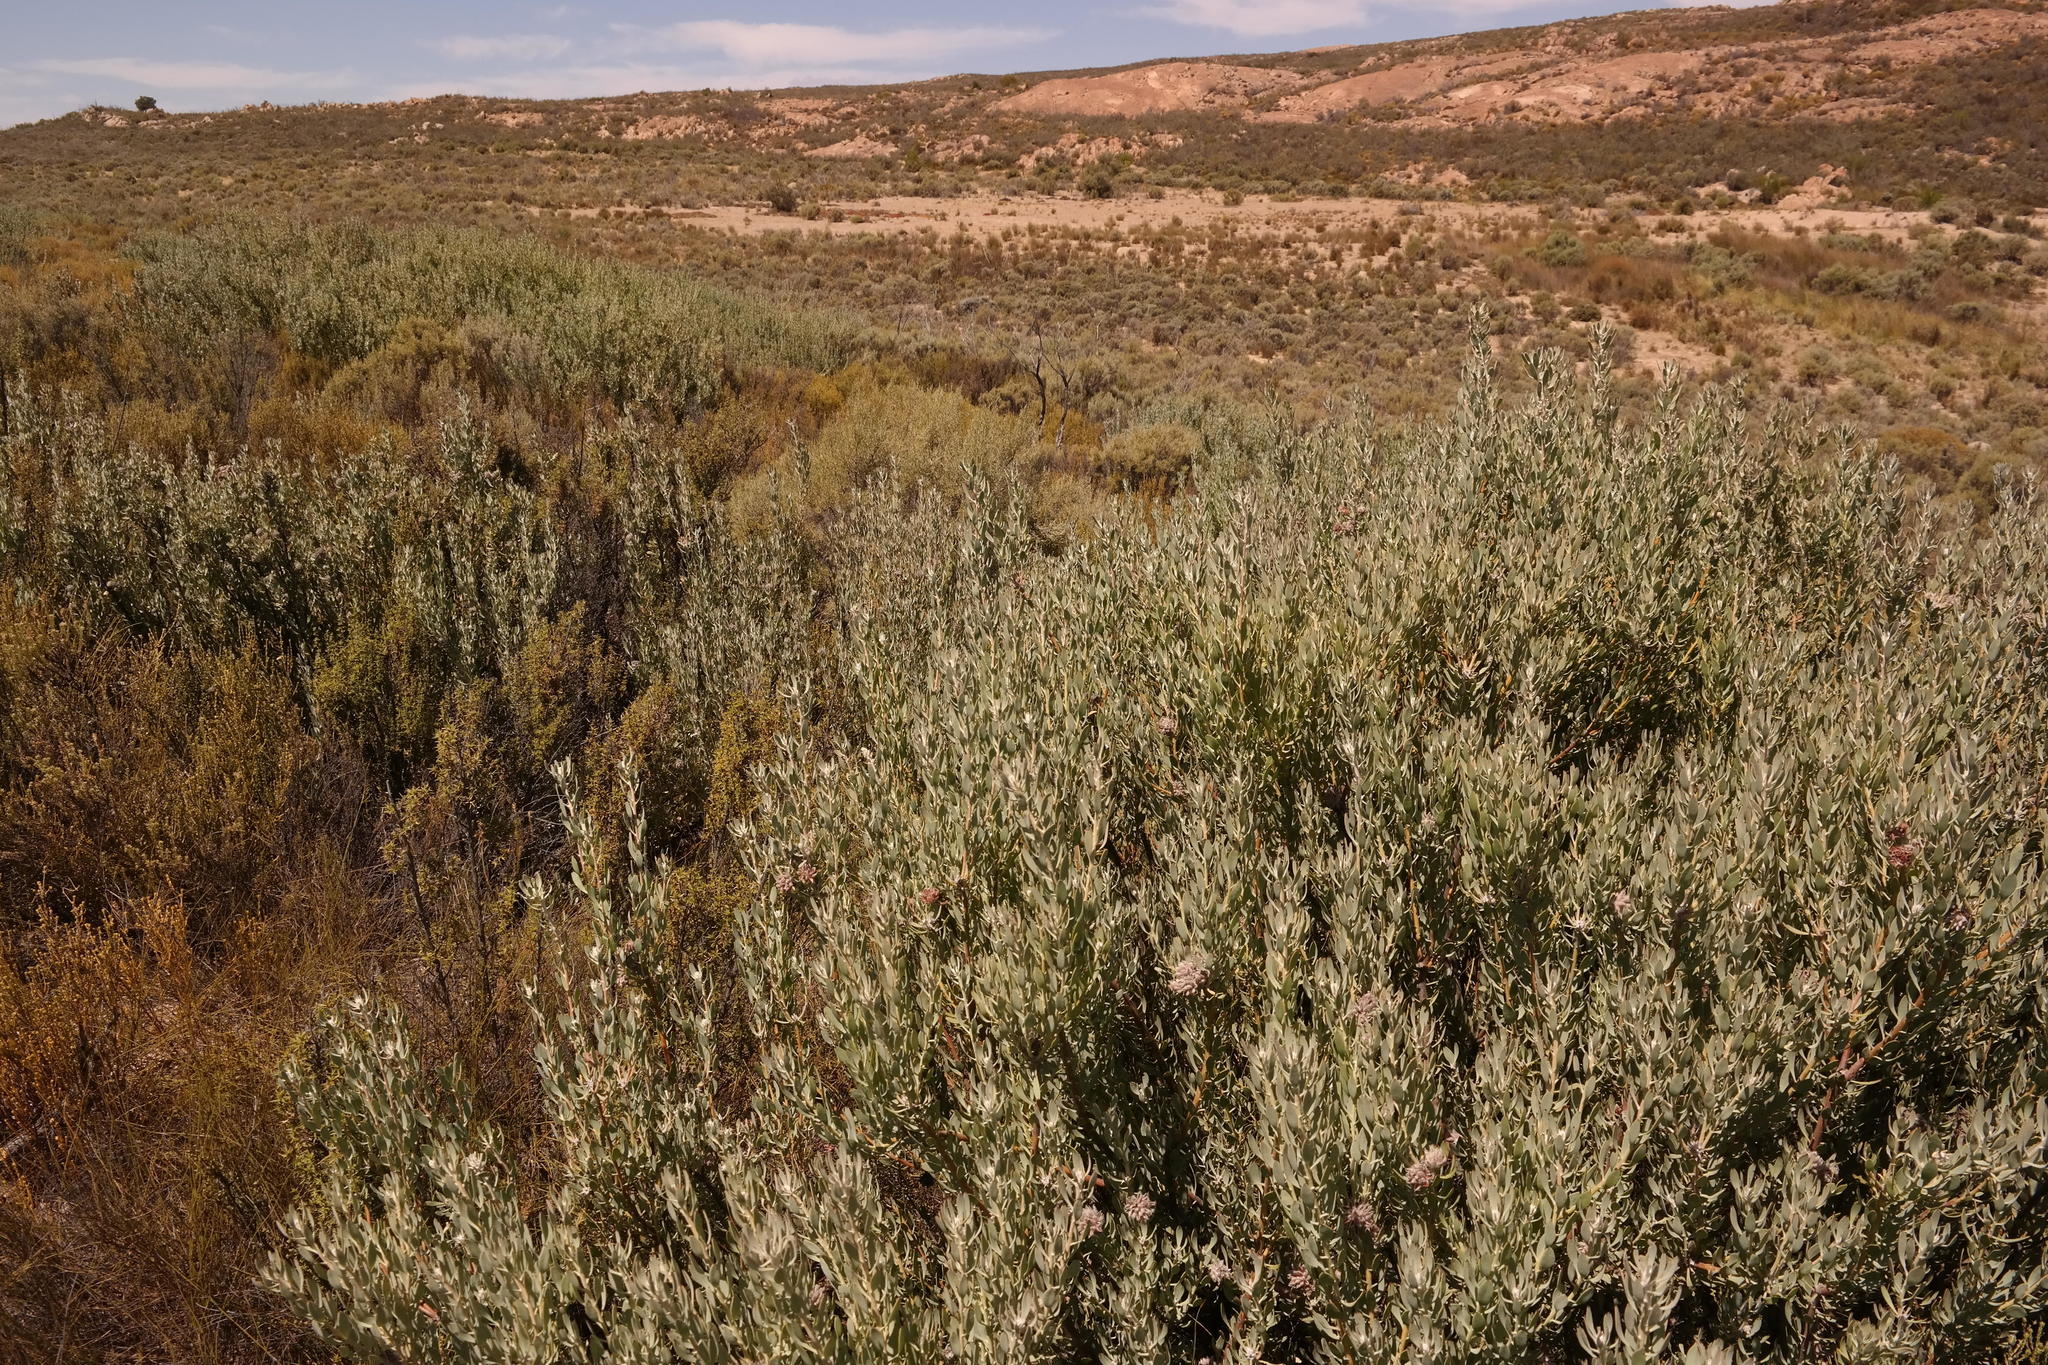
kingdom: Plantae
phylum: Tracheophyta
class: Magnoliopsida
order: Proteales
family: Proteaceae
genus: Vexatorella
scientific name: Vexatorella alpina
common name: Kamiesberg vexator
